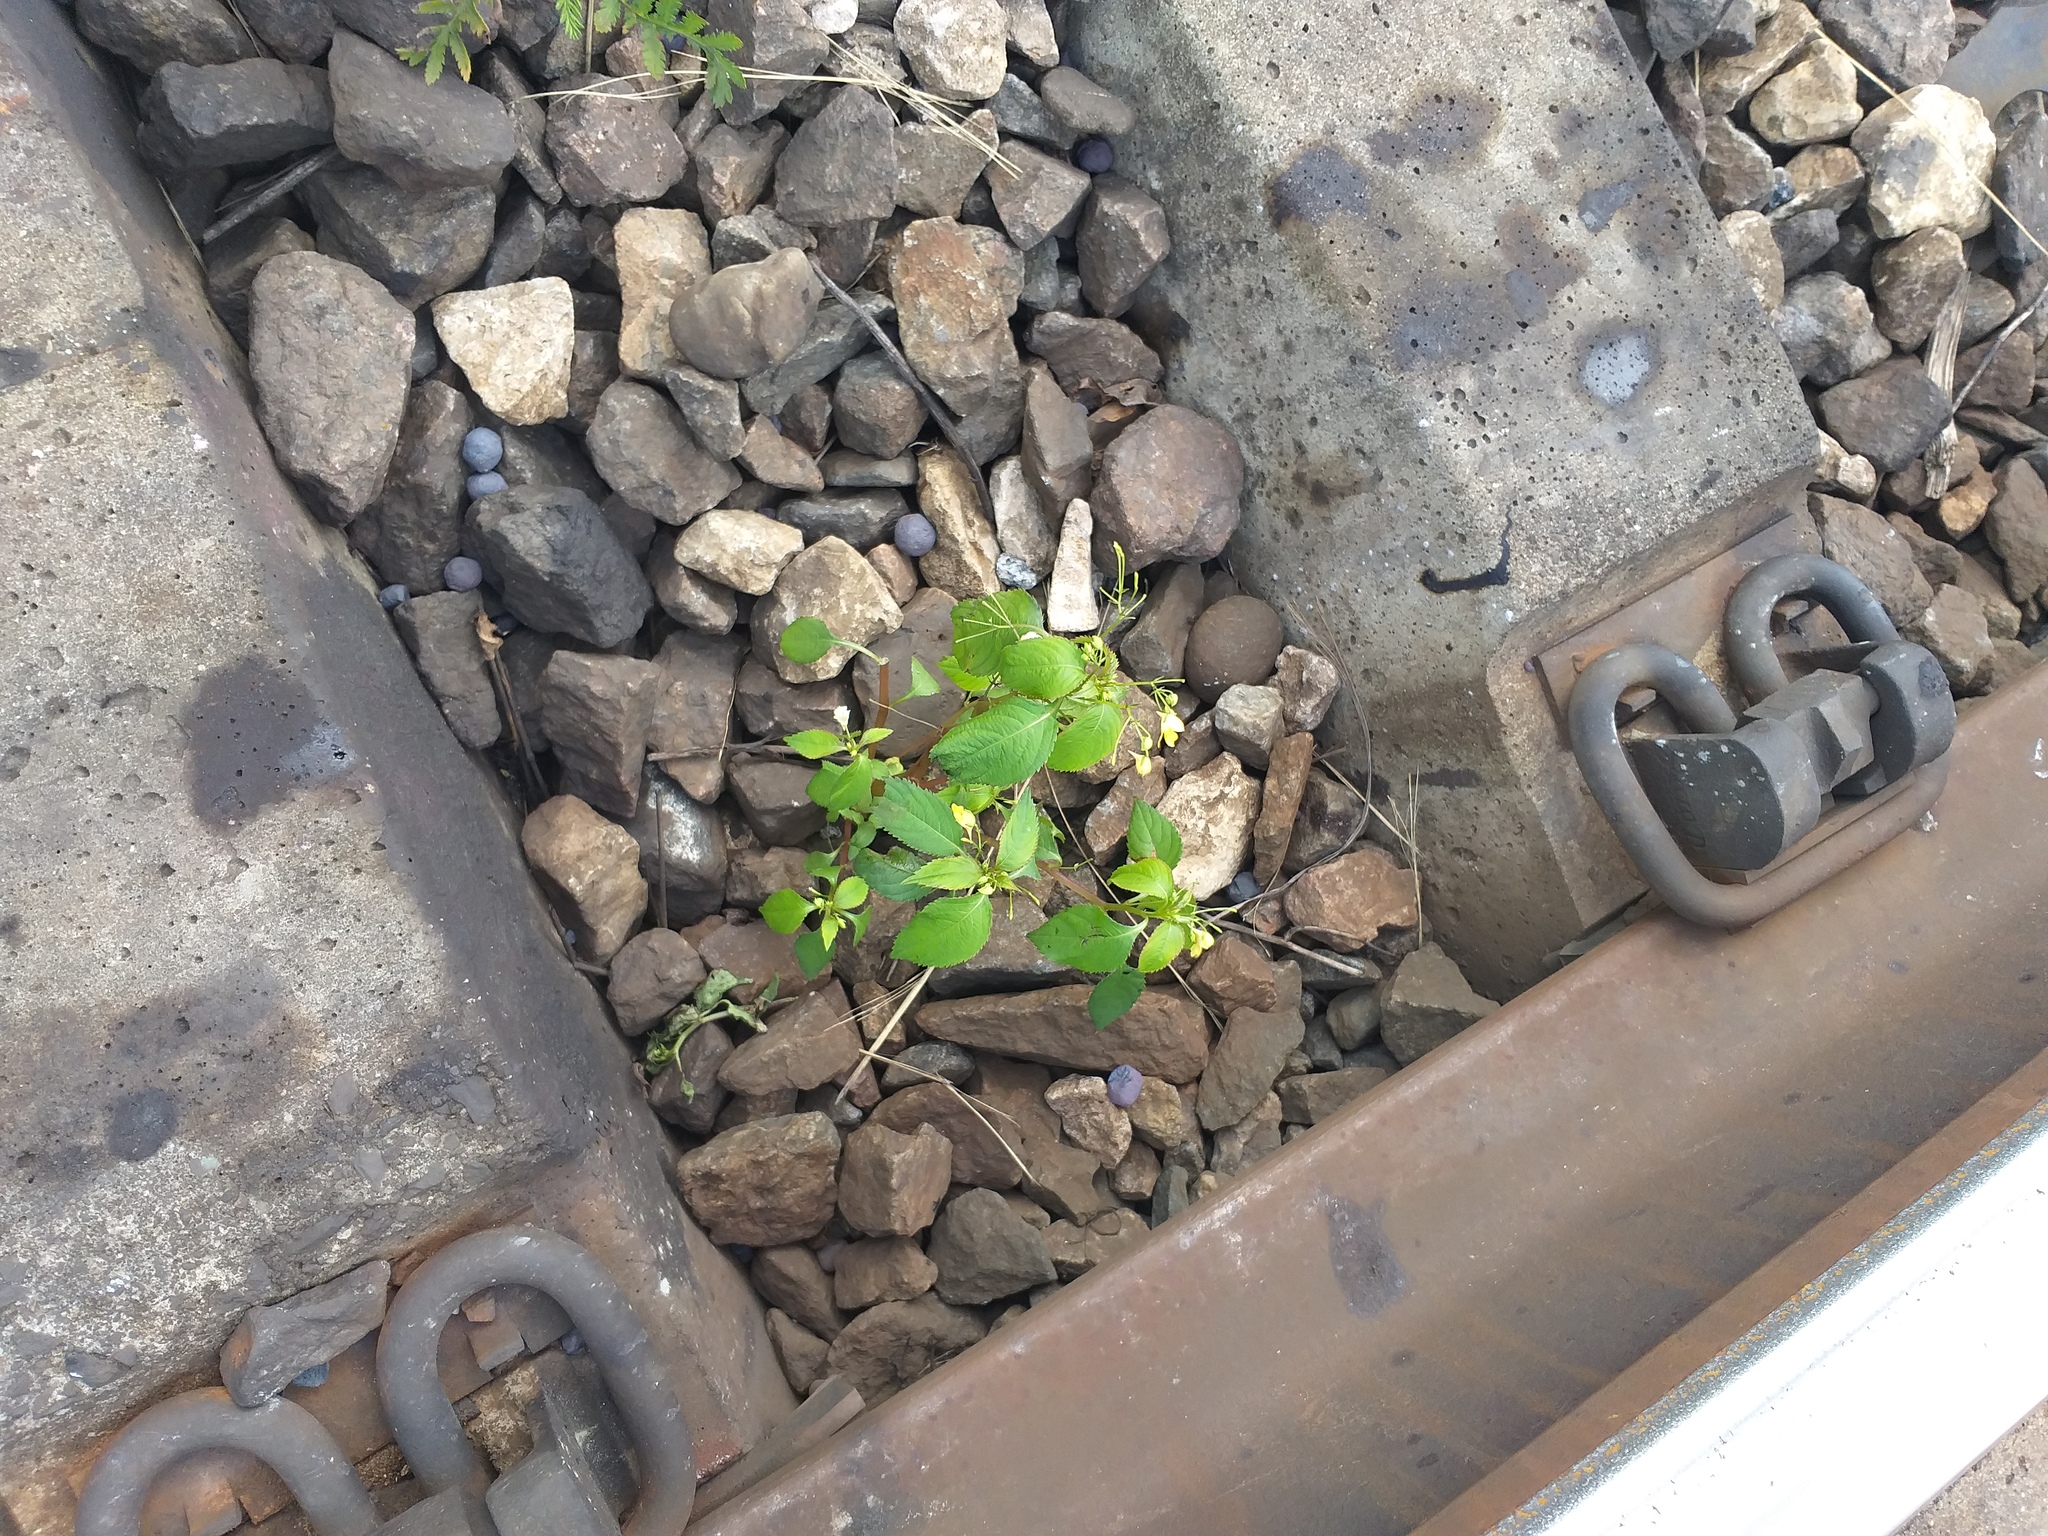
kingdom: Plantae
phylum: Tracheophyta
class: Magnoliopsida
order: Ericales
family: Balsaminaceae
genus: Impatiens
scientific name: Impatiens parviflora
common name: Small balsam
